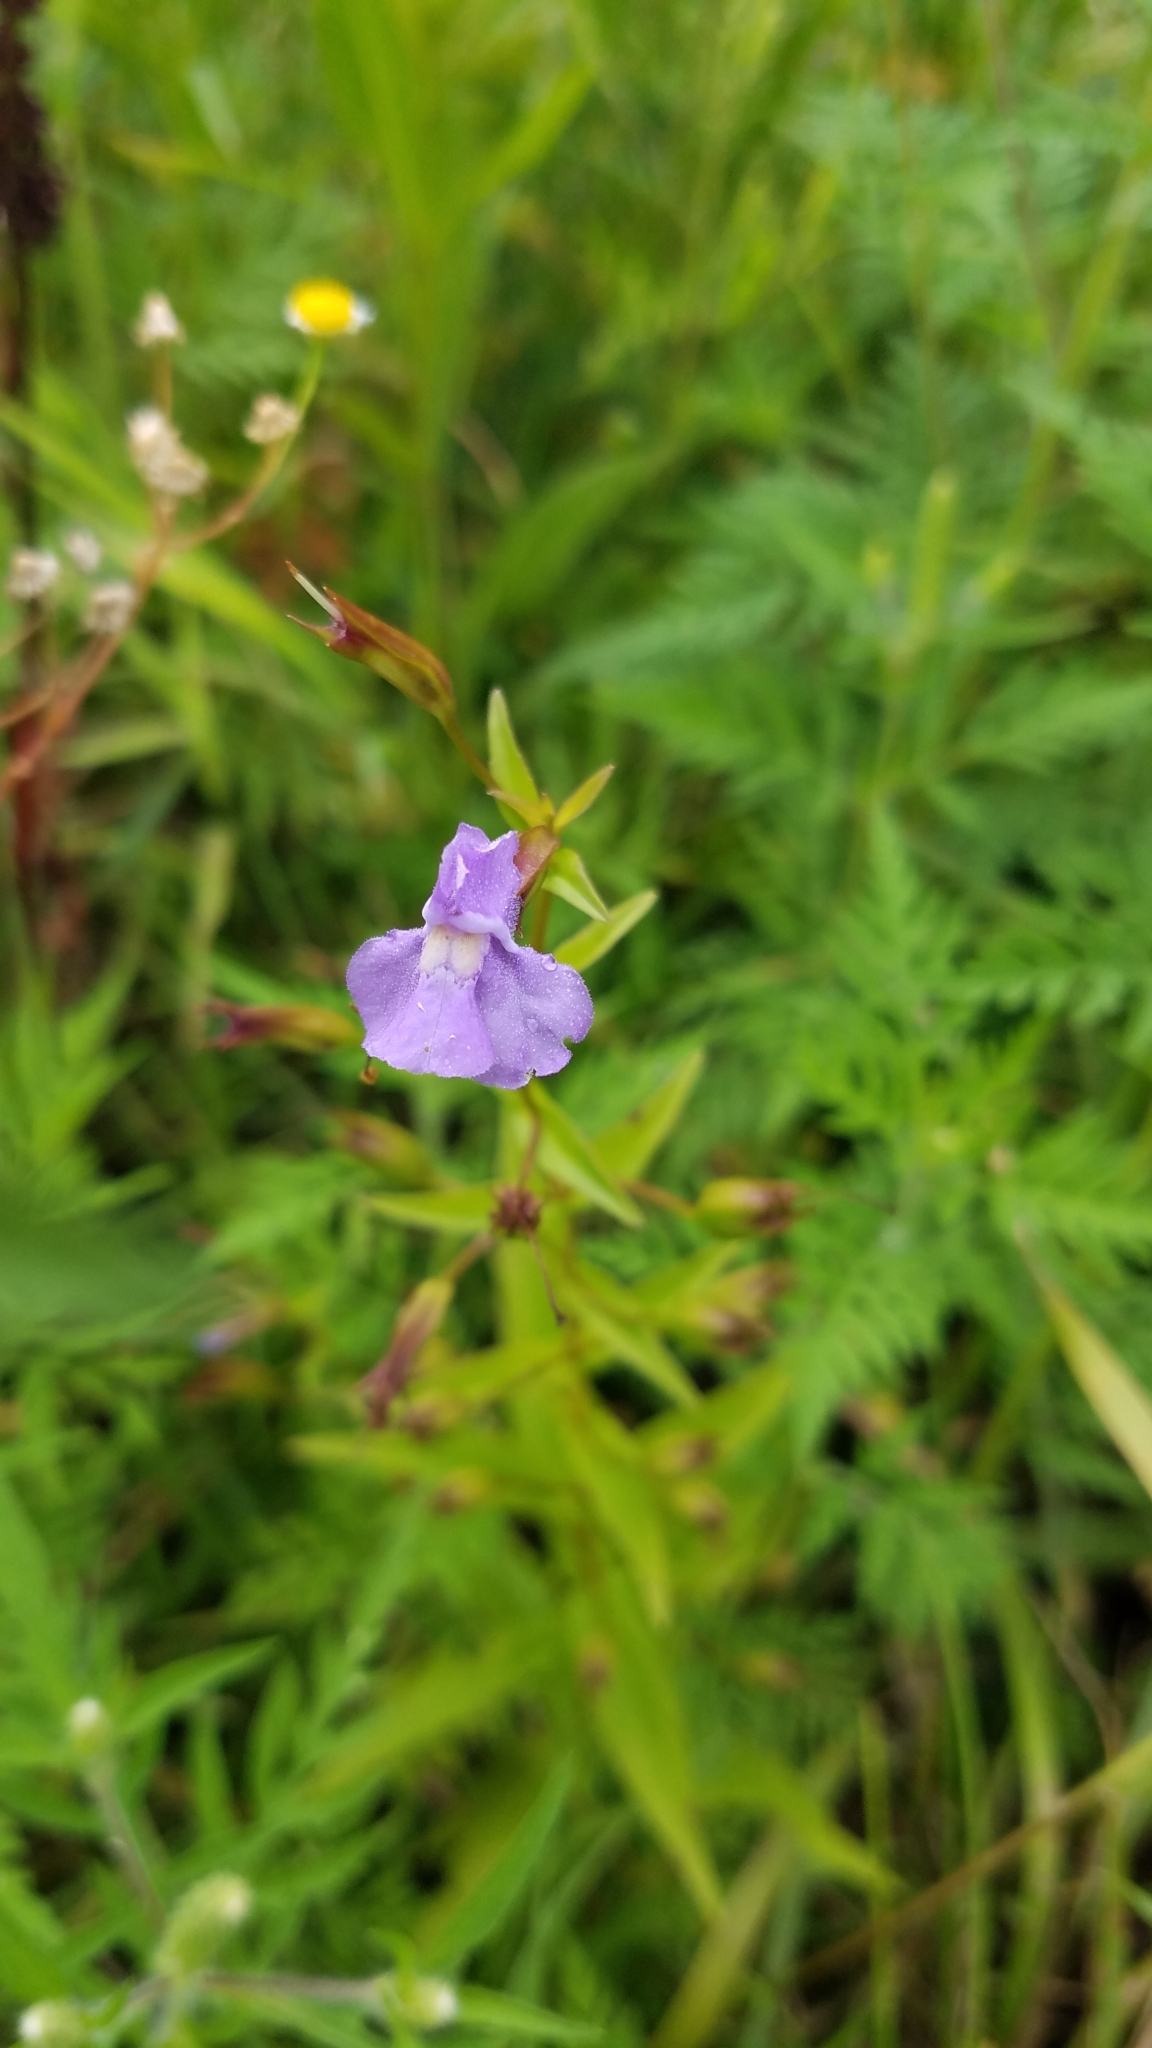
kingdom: Plantae
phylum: Tracheophyta
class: Magnoliopsida
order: Lamiales
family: Phrymaceae
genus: Mimulus
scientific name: Mimulus ringens
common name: Allegheny monkeyflower
